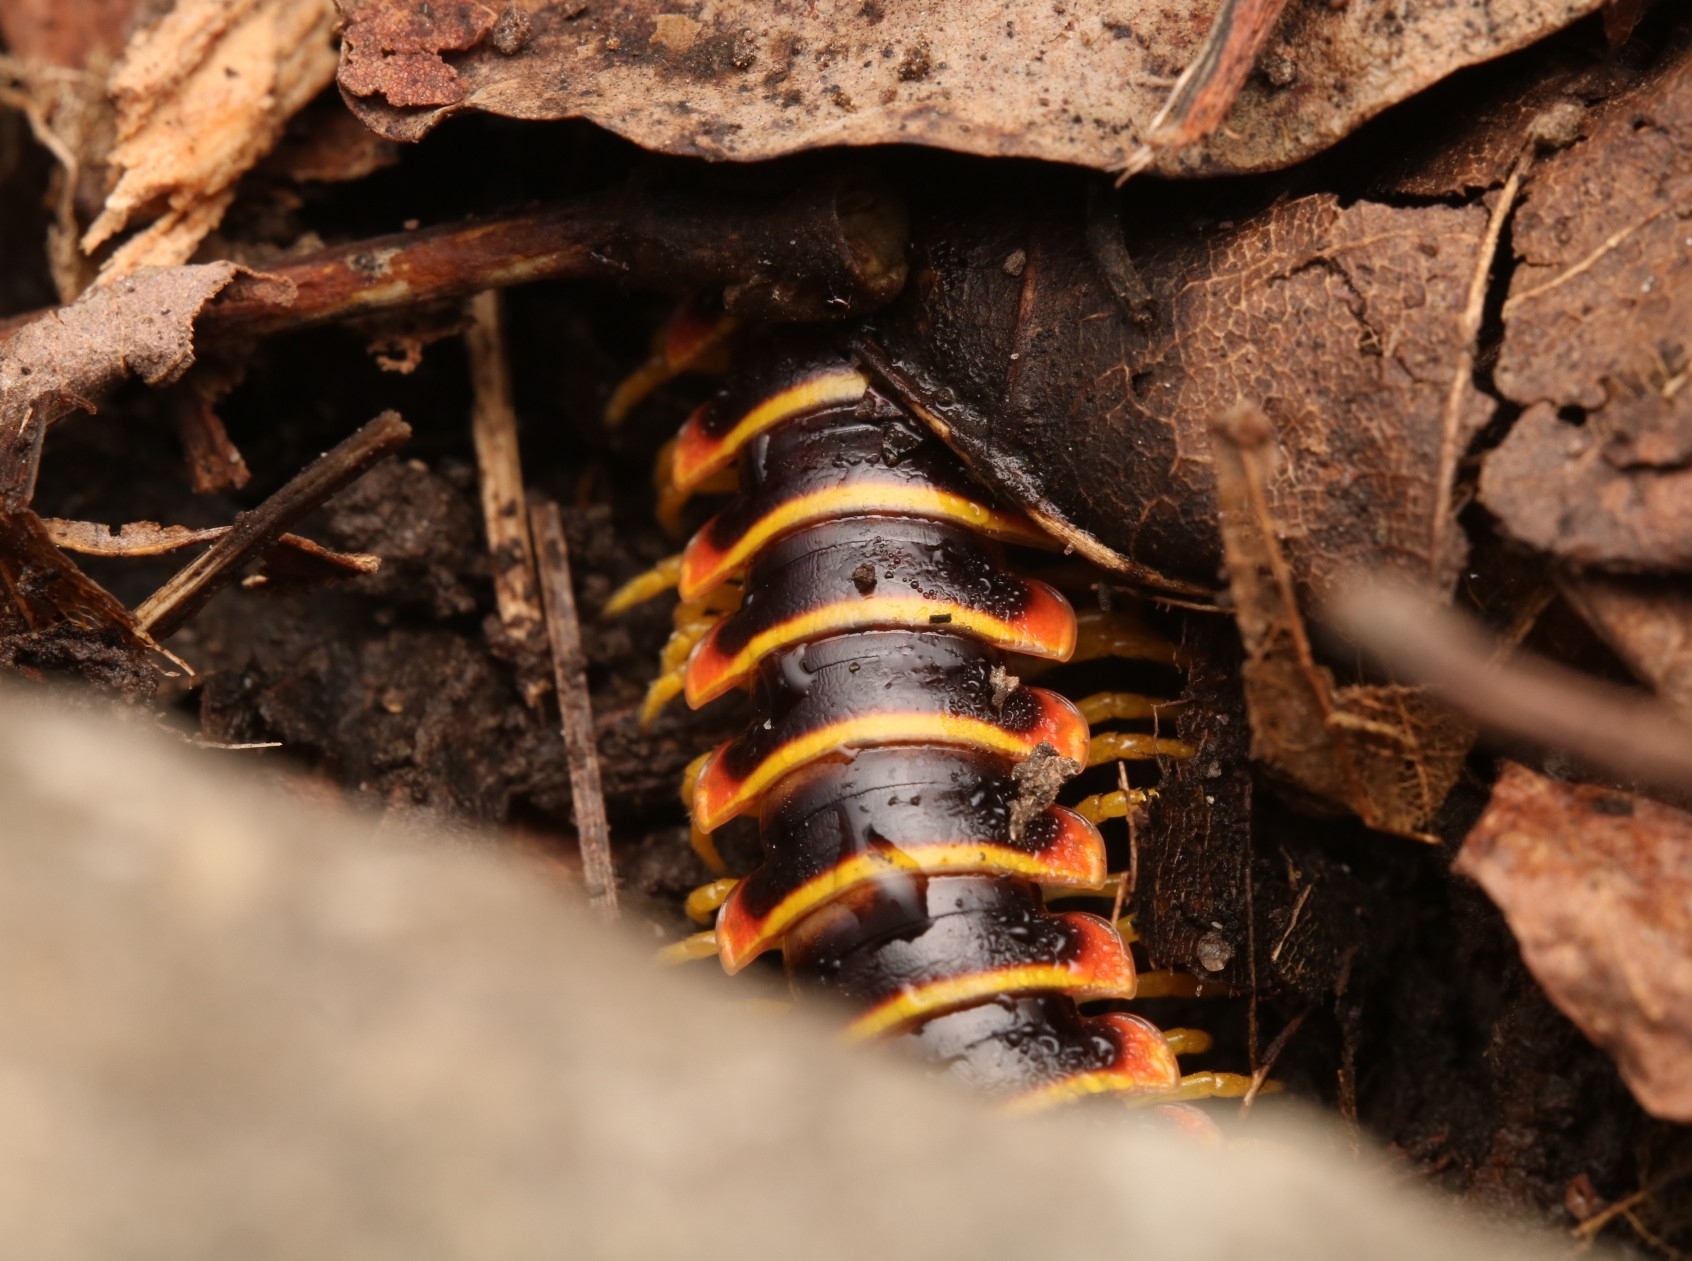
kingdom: Animalia
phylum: Arthropoda
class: Diplopoda
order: Polydesmida
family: Xystodesmidae
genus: Apheloria
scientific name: Apheloria virginiensis
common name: Black-and-gold flat millipede
